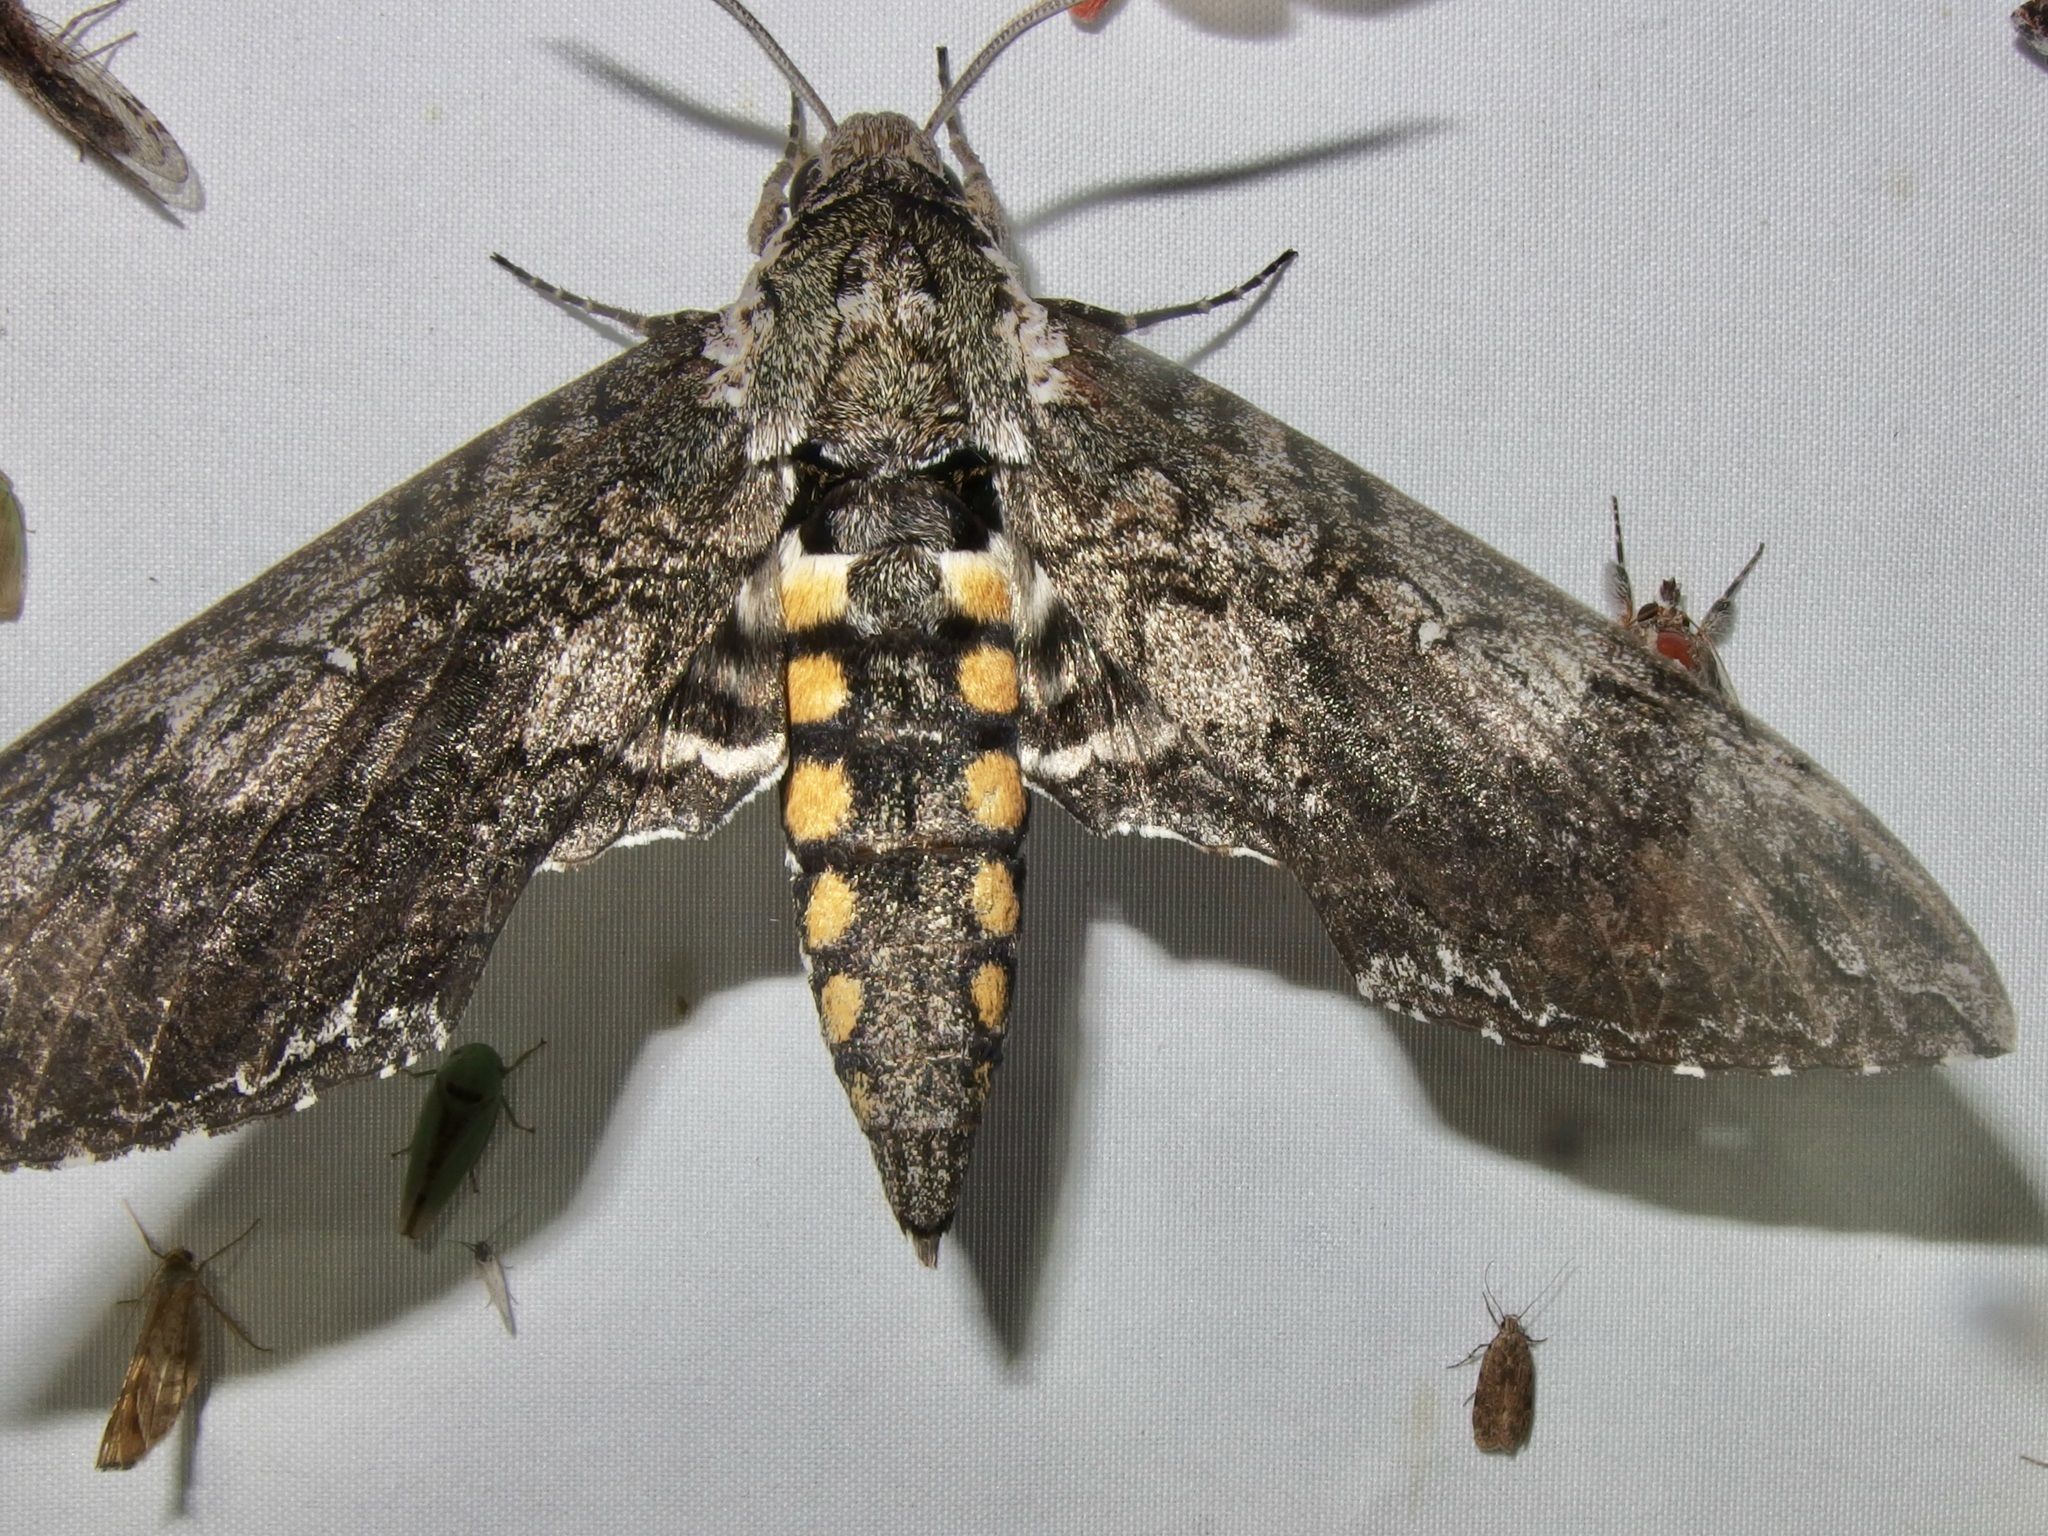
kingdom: Animalia
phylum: Arthropoda
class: Insecta
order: Lepidoptera
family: Sphingidae
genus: Manduca
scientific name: Manduca sexta
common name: Carolina sphinx
